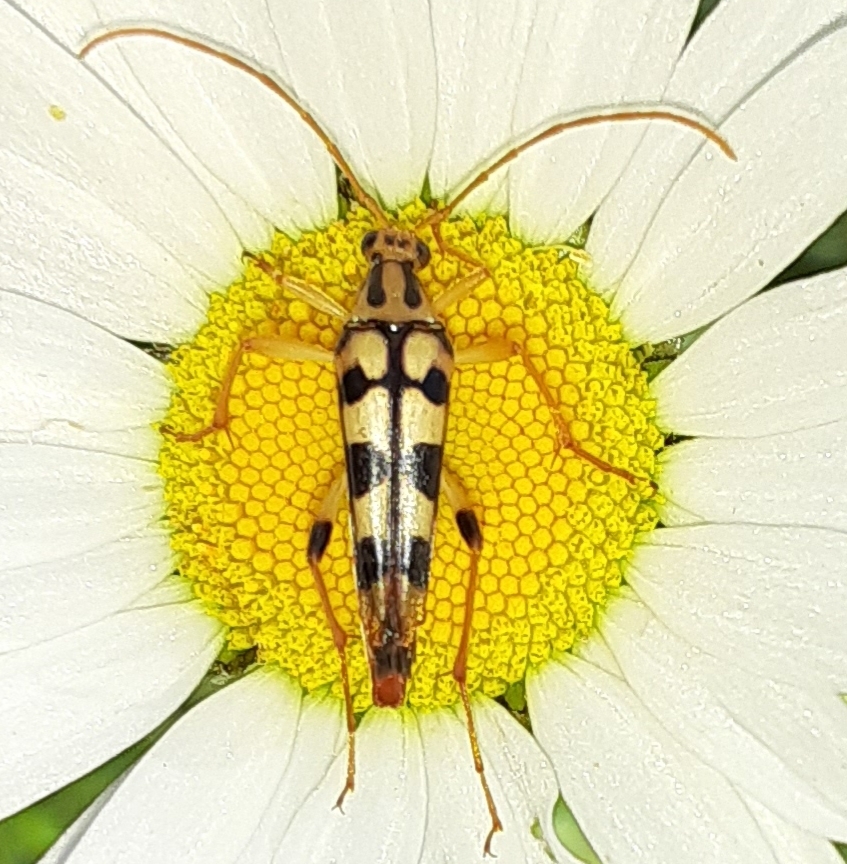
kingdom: Animalia
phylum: Arthropoda
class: Insecta
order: Coleoptera
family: Cerambycidae
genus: Strangalia
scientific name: Strangalia luteicornis
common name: Yellow-horned flower longhorn beetle
